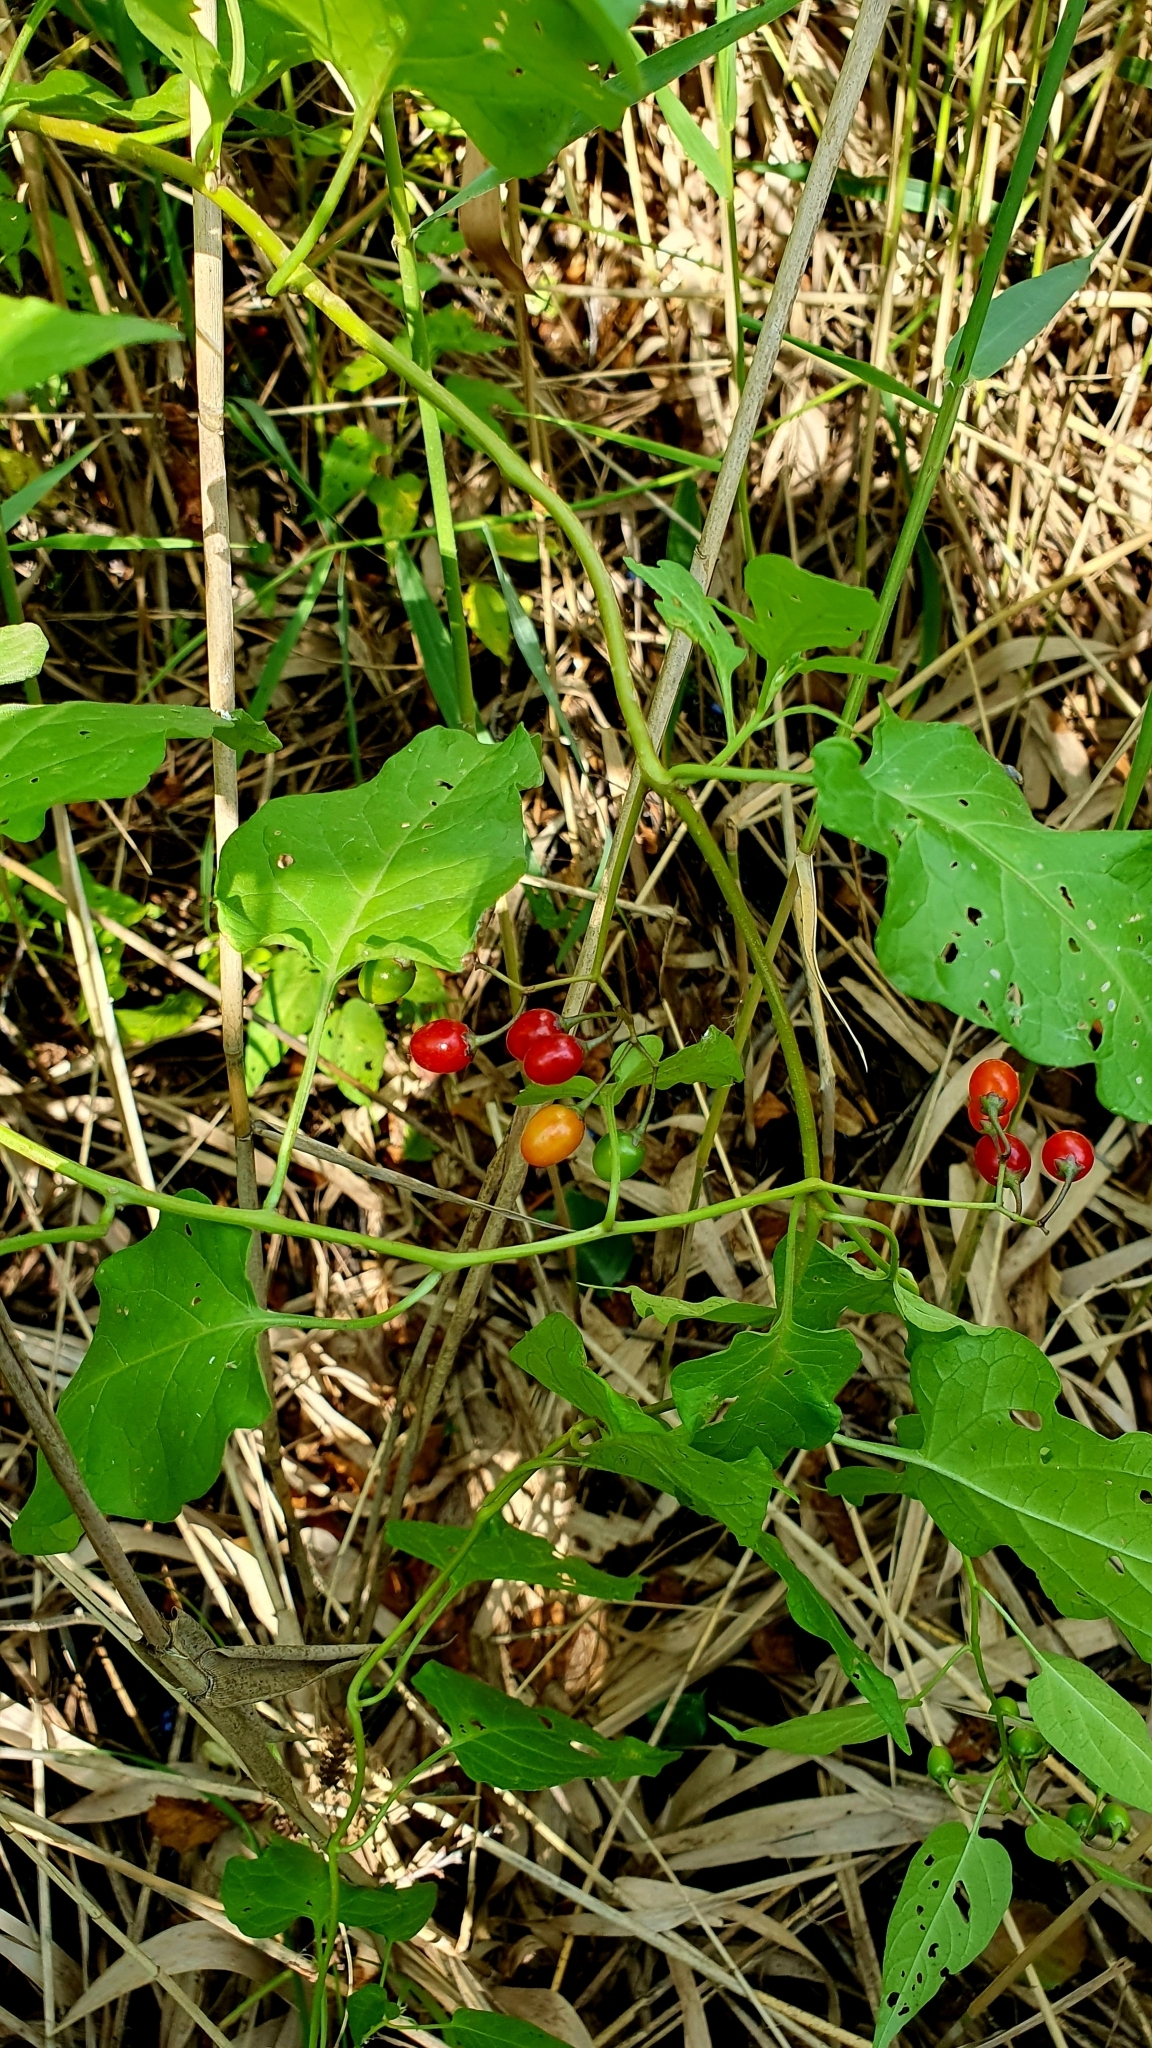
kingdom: Plantae
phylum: Tracheophyta
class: Magnoliopsida
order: Solanales
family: Solanaceae
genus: Solanum
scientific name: Solanum dulcamara
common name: Climbing nightshade
